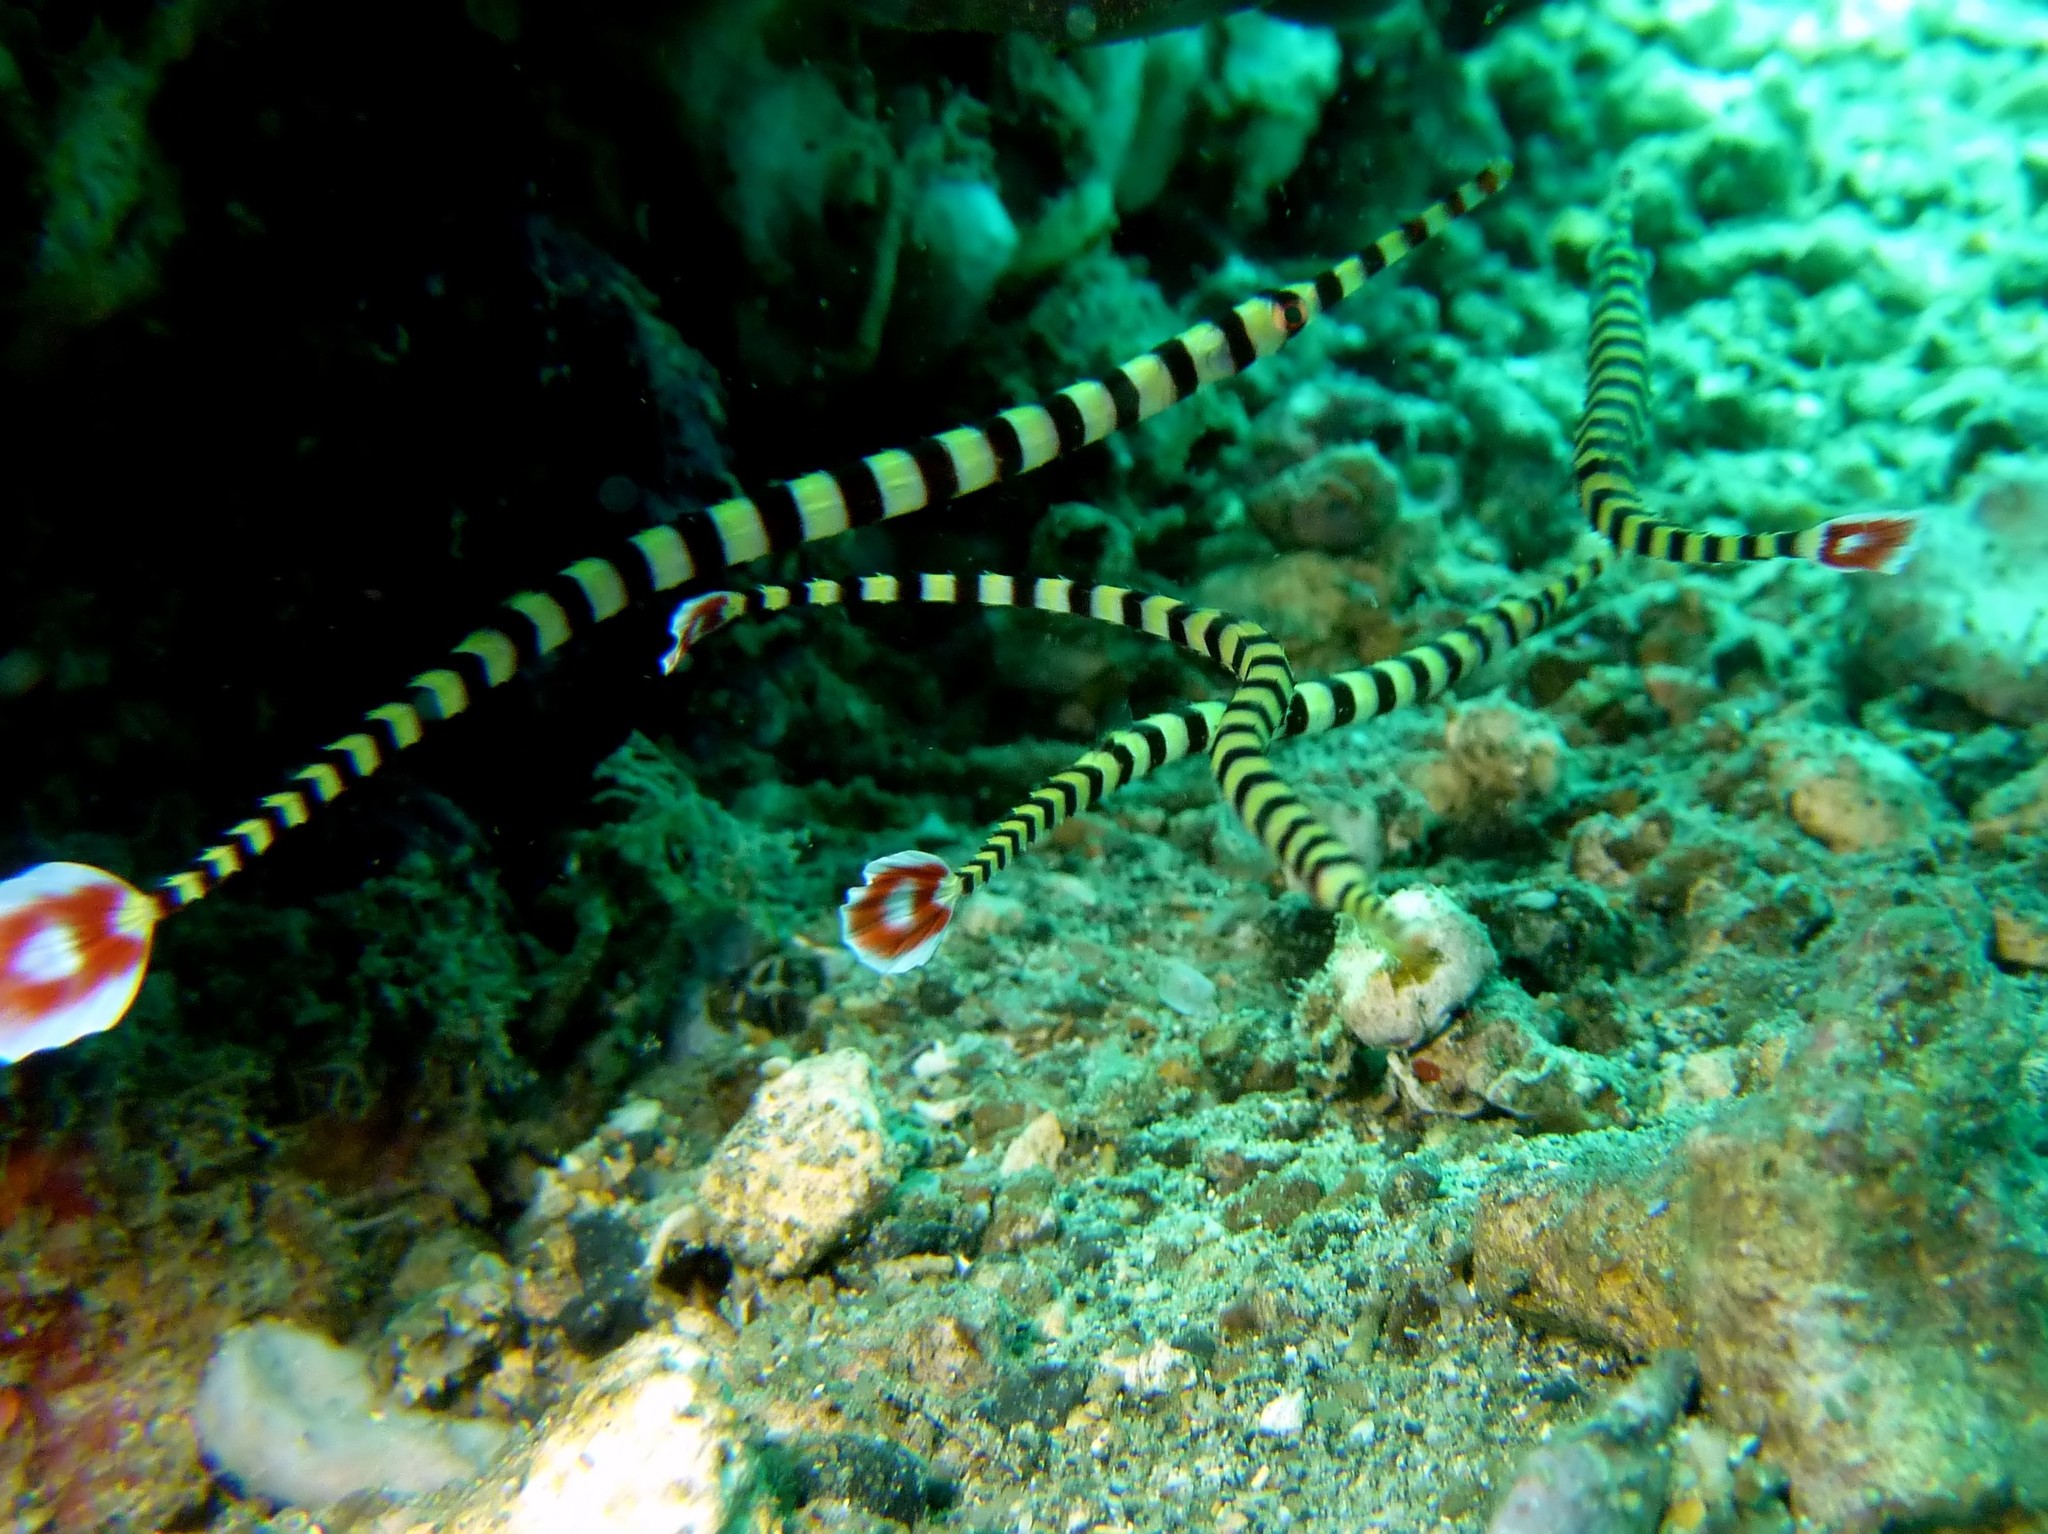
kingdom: Animalia
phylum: Chordata
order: Syngnathiformes
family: Syngnathidae
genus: Dunckerocampus
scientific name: Dunckerocampus dactyliophorus
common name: Banded pipefish
